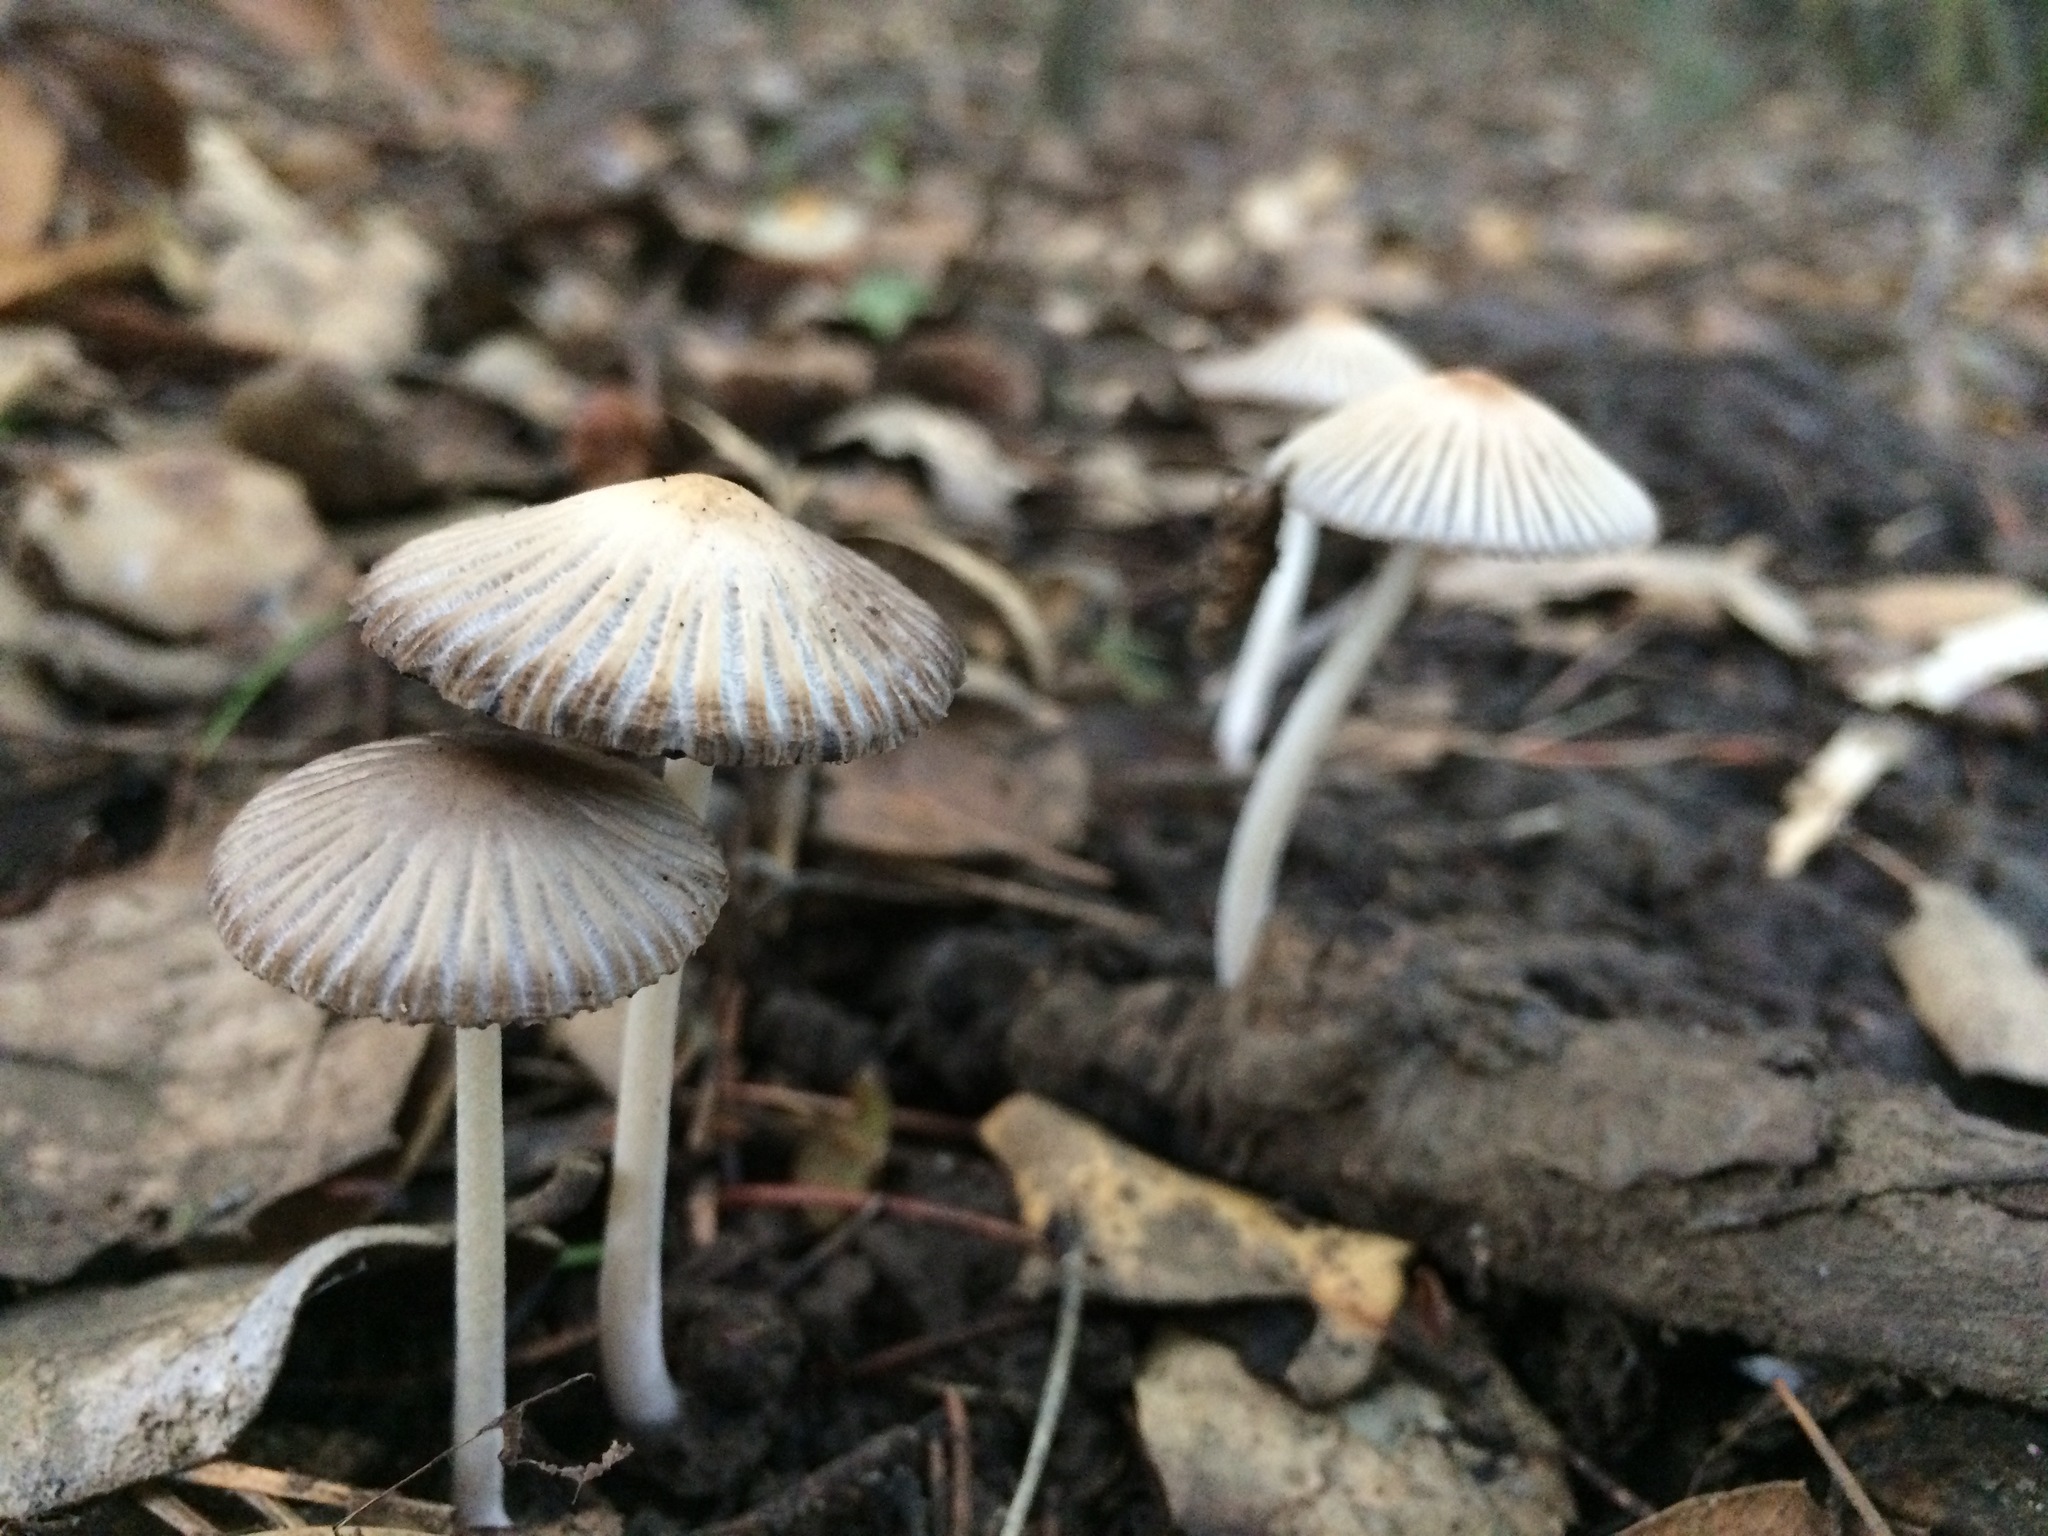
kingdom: Fungi
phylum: Basidiomycota
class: Agaricomycetes
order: Agaricales
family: Psathyrellaceae
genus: Tulosesus
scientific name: Tulosesus impatiens
